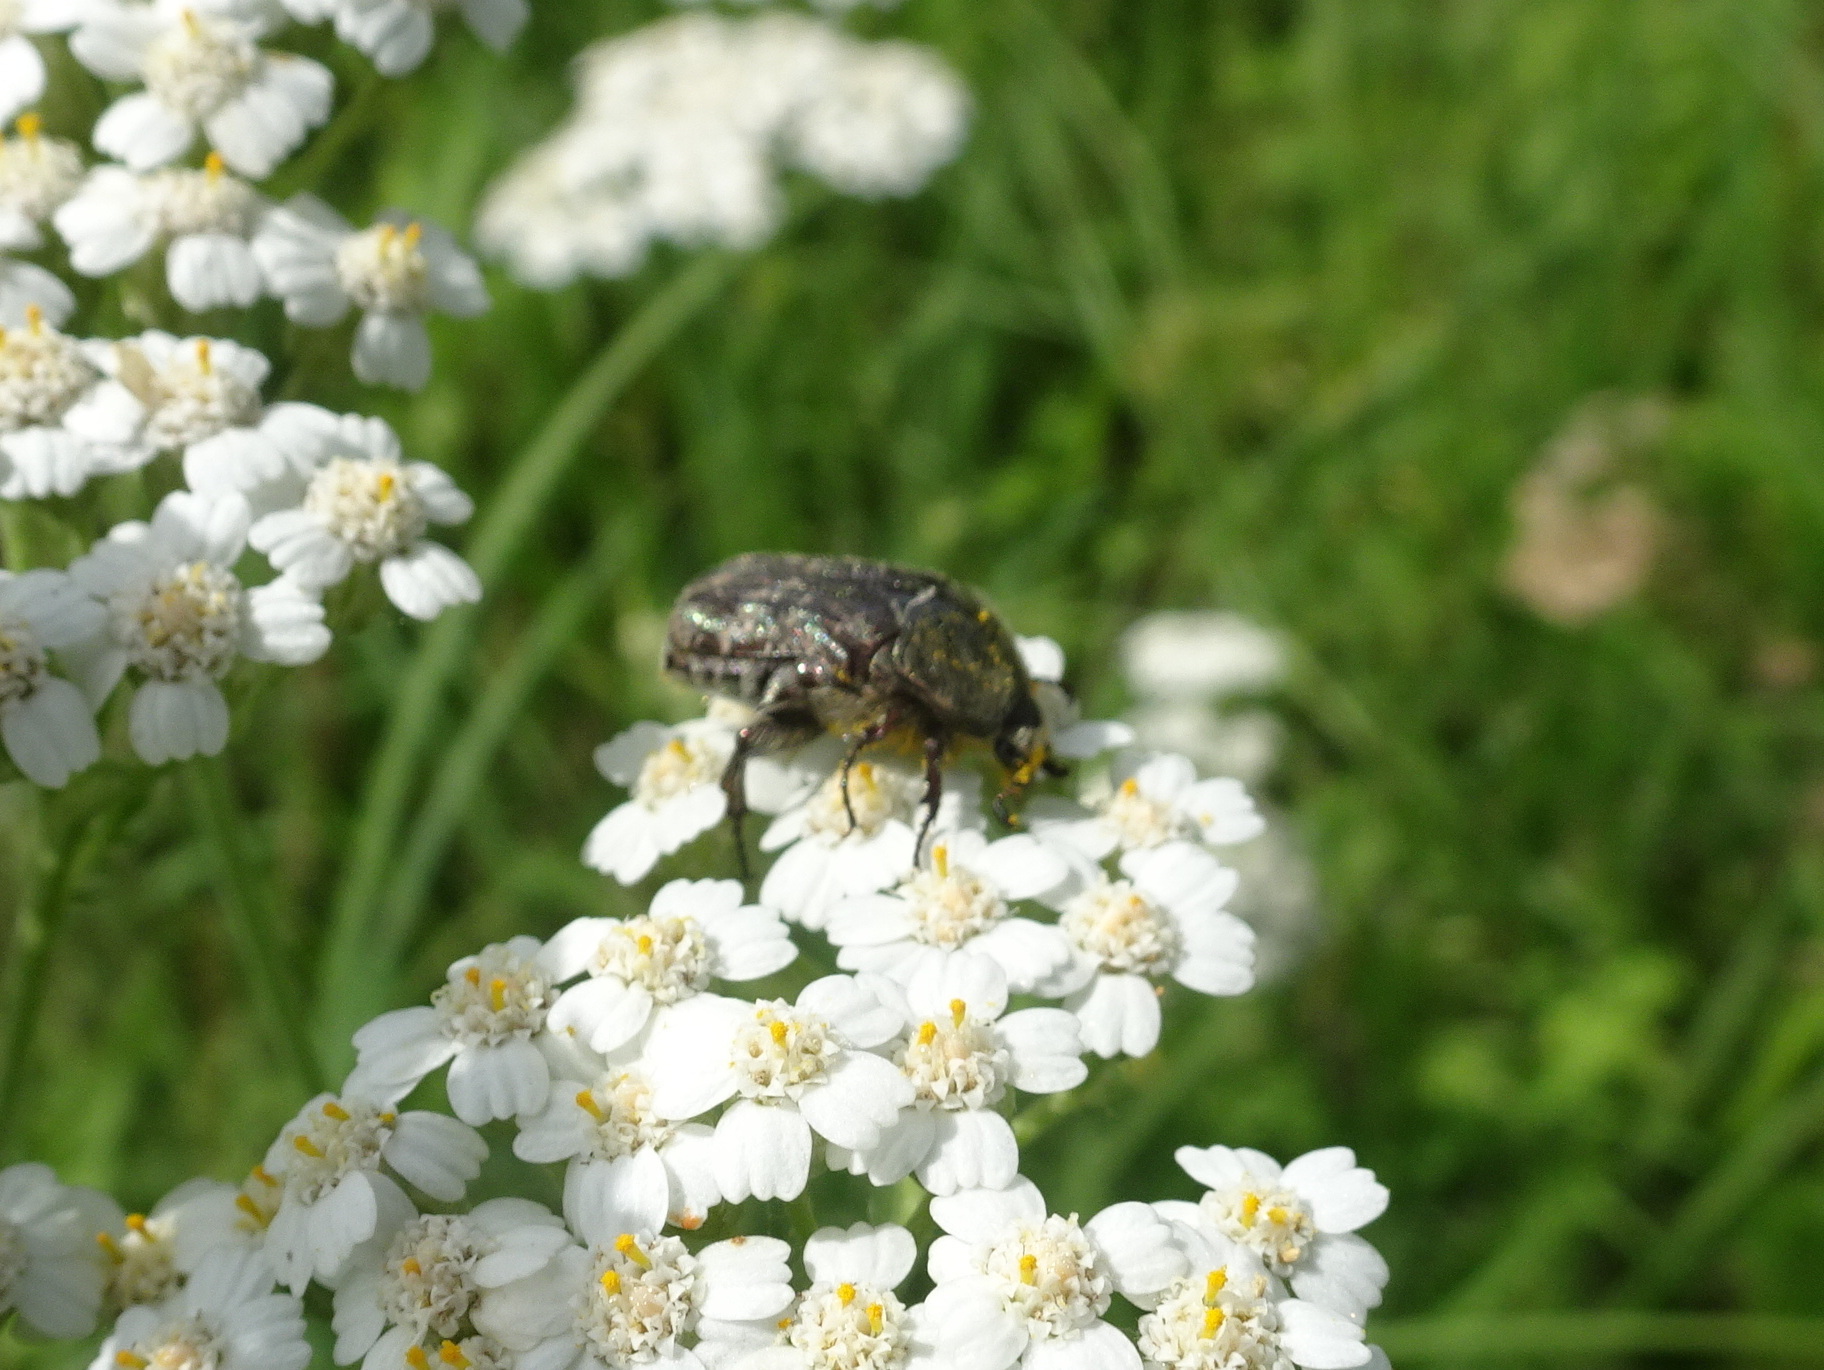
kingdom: Animalia
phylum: Arthropoda
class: Insecta
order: Coleoptera
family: Scarabaeidae
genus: Euphoria
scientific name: Euphoria sepulcralis
